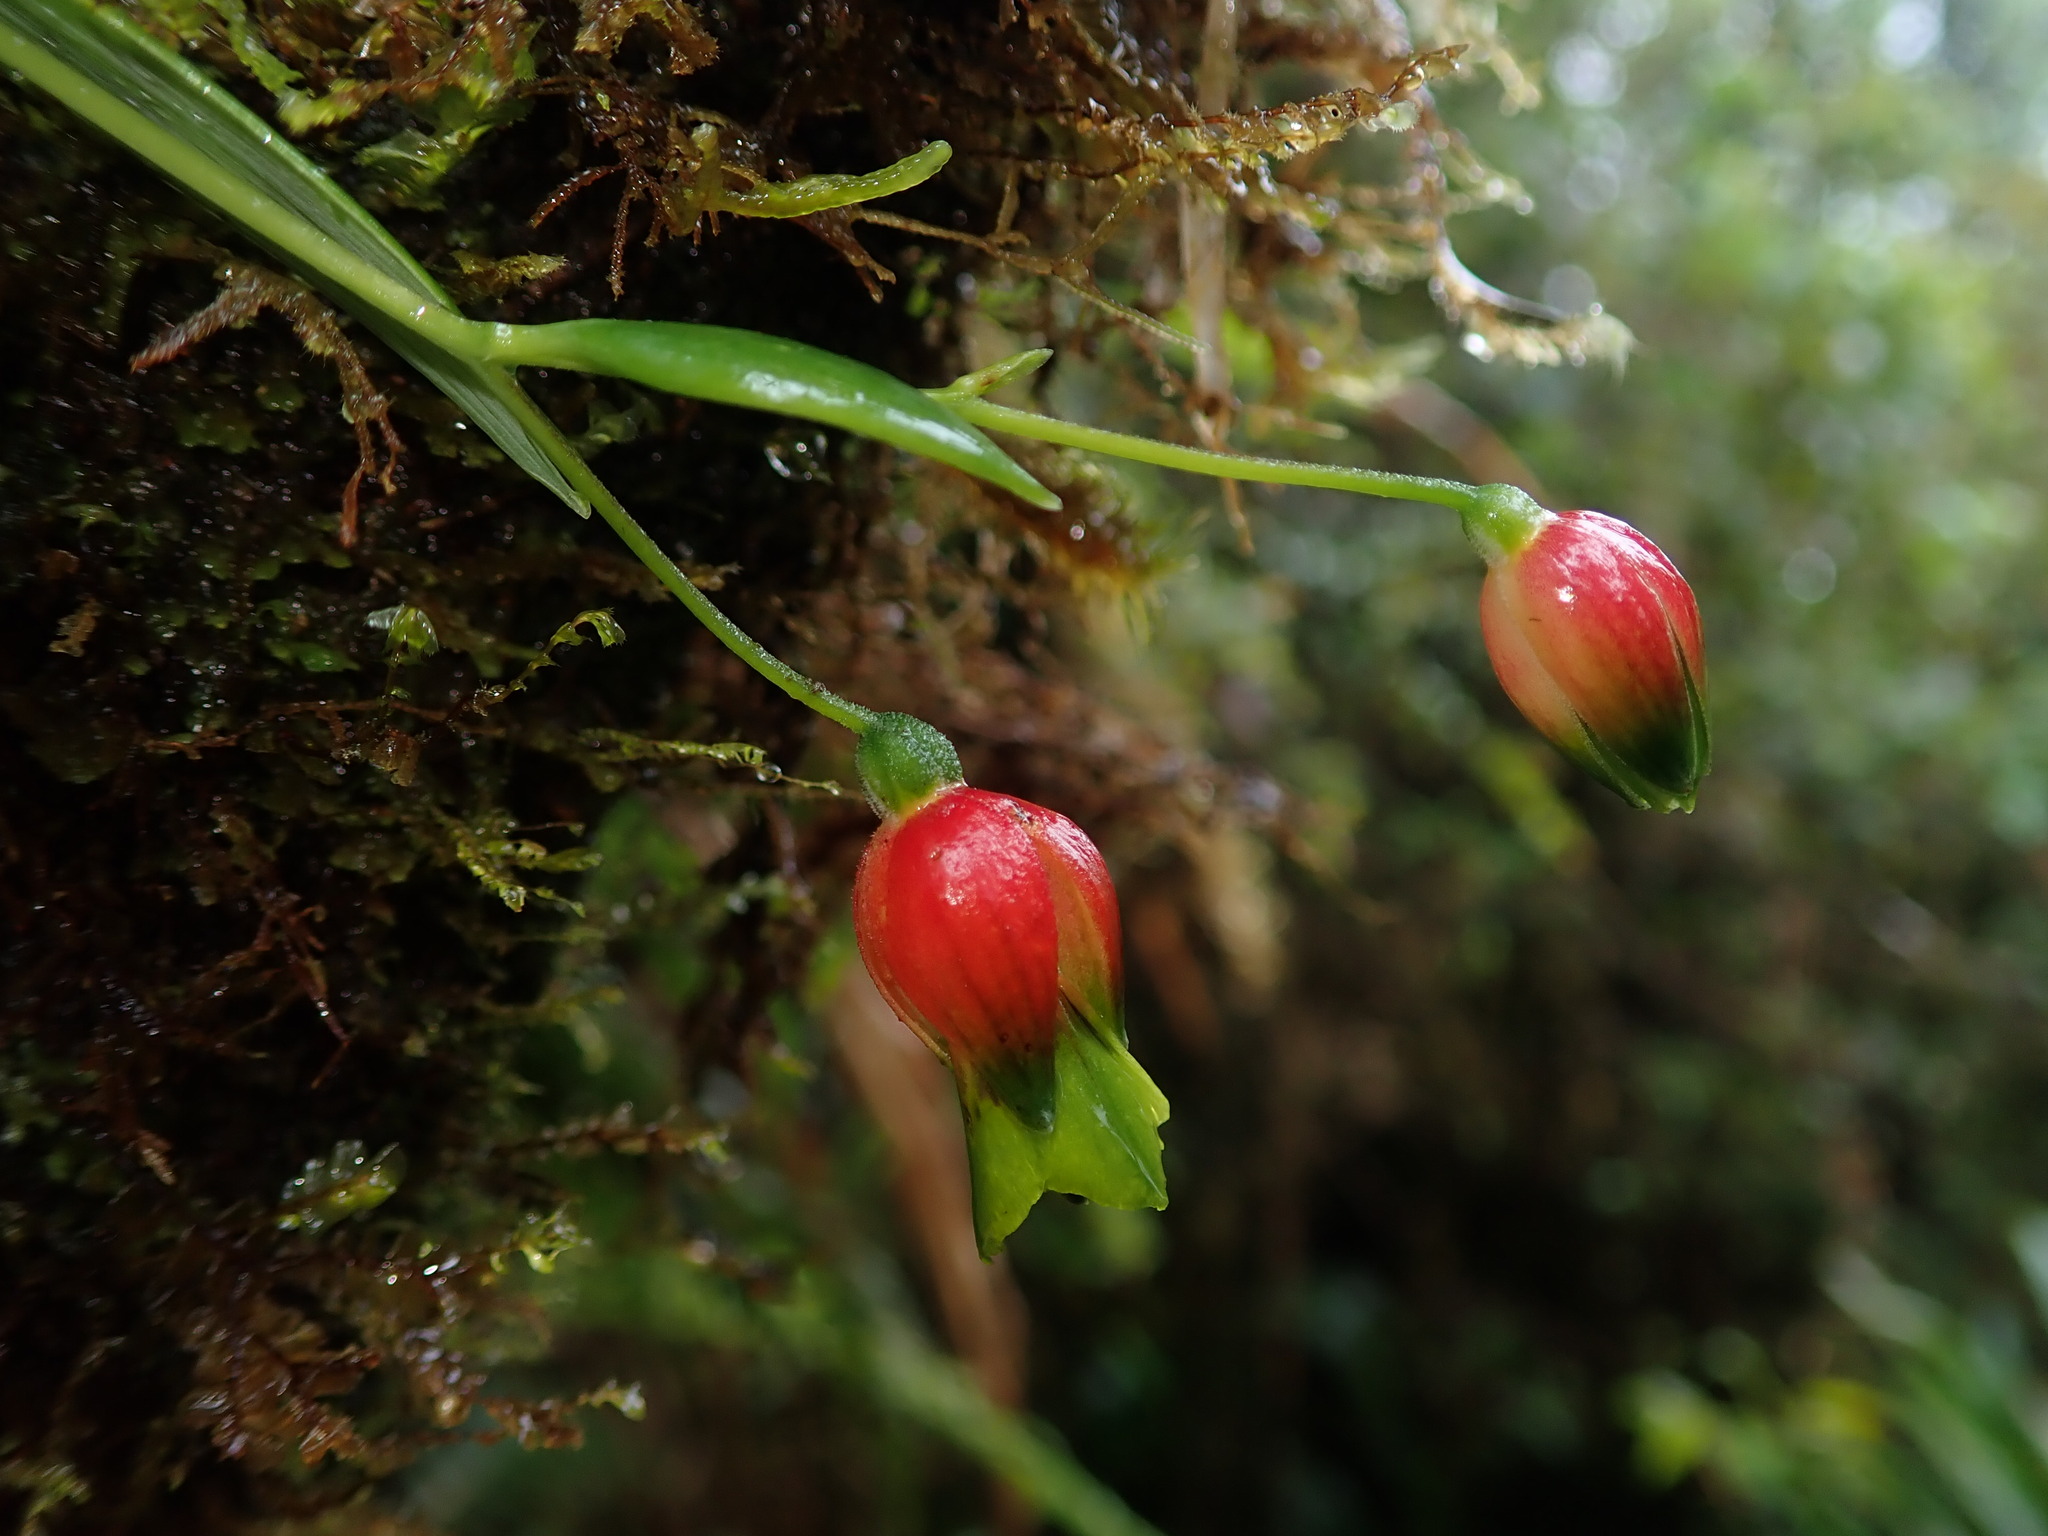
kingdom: Plantae
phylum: Tracheophyta
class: Liliopsida
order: Liliales
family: Alstroemeriaceae
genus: Bomarea
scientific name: Bomarea hieronymi
